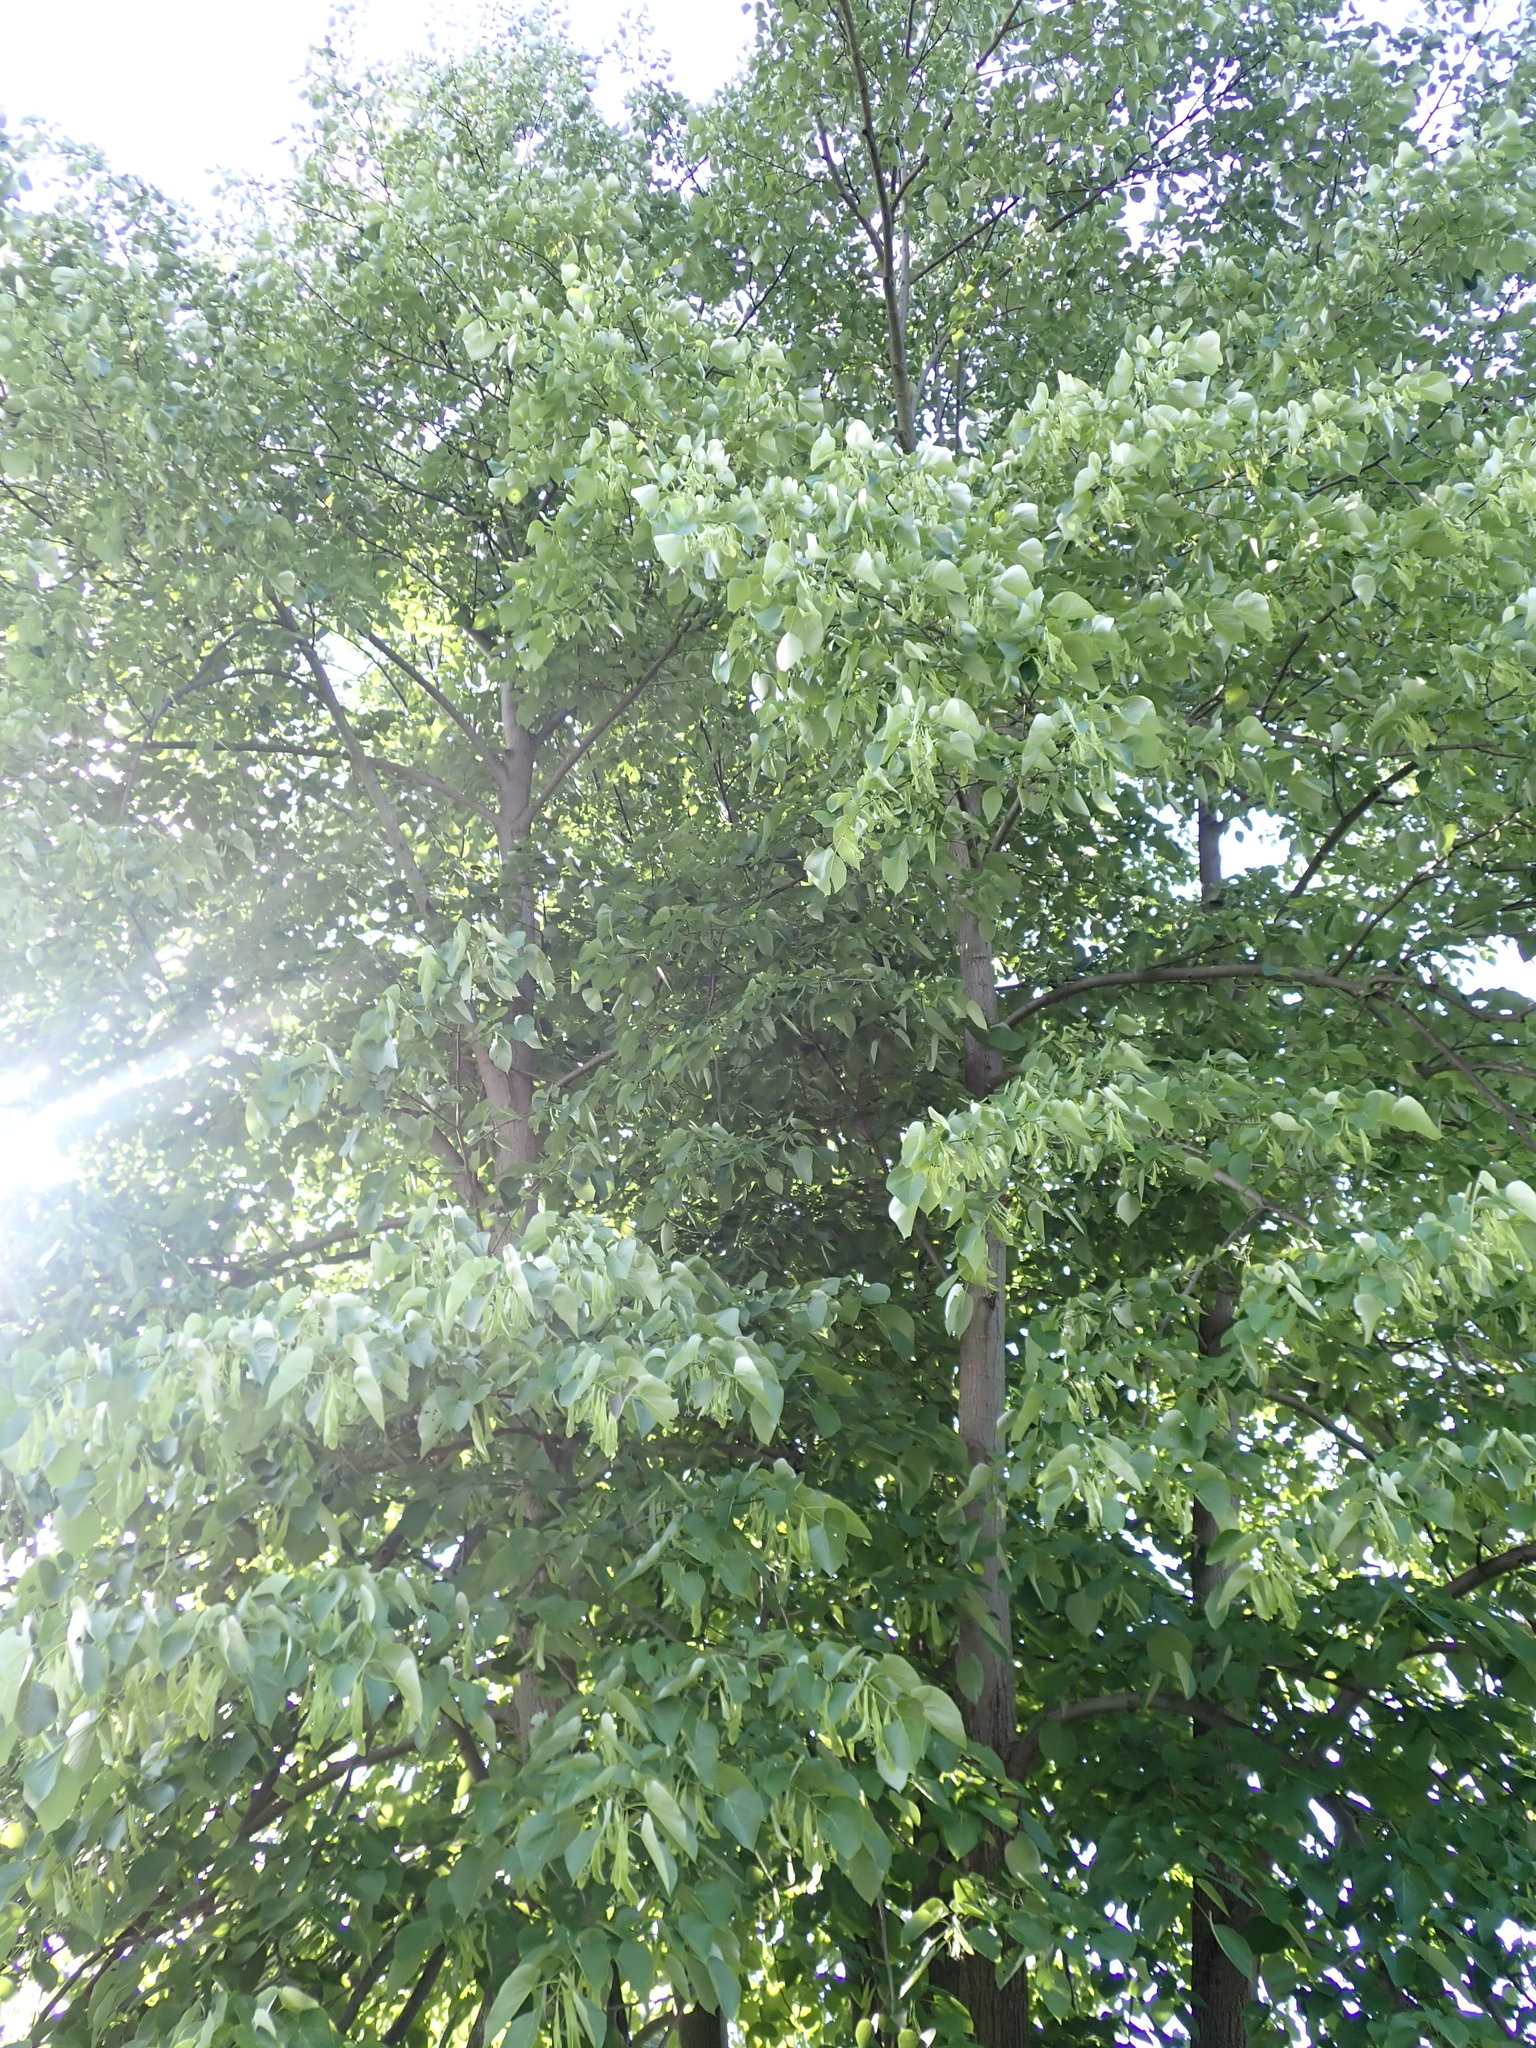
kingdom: Plantae
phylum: Tracheophyta
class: Magnoliopsida
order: Malvales
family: Malvaceae
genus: Tilia
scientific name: Tilia americana
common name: Basswood
